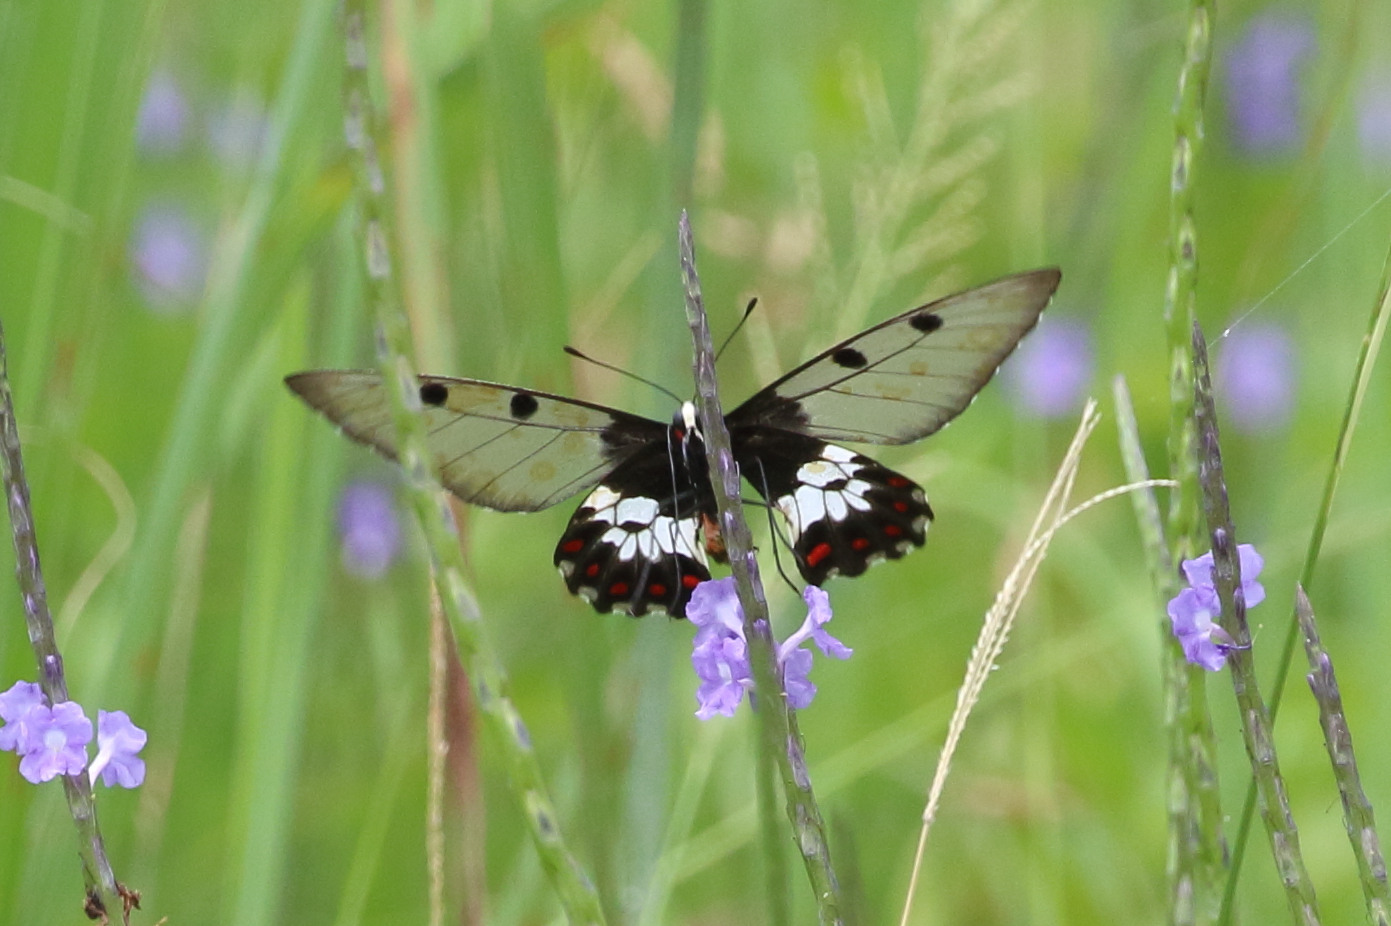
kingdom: Animalia
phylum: Arthropoda
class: Insecta
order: Lepidoptera
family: Papilionidae
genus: Cressida
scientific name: Cressida cressida
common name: Big greasy
